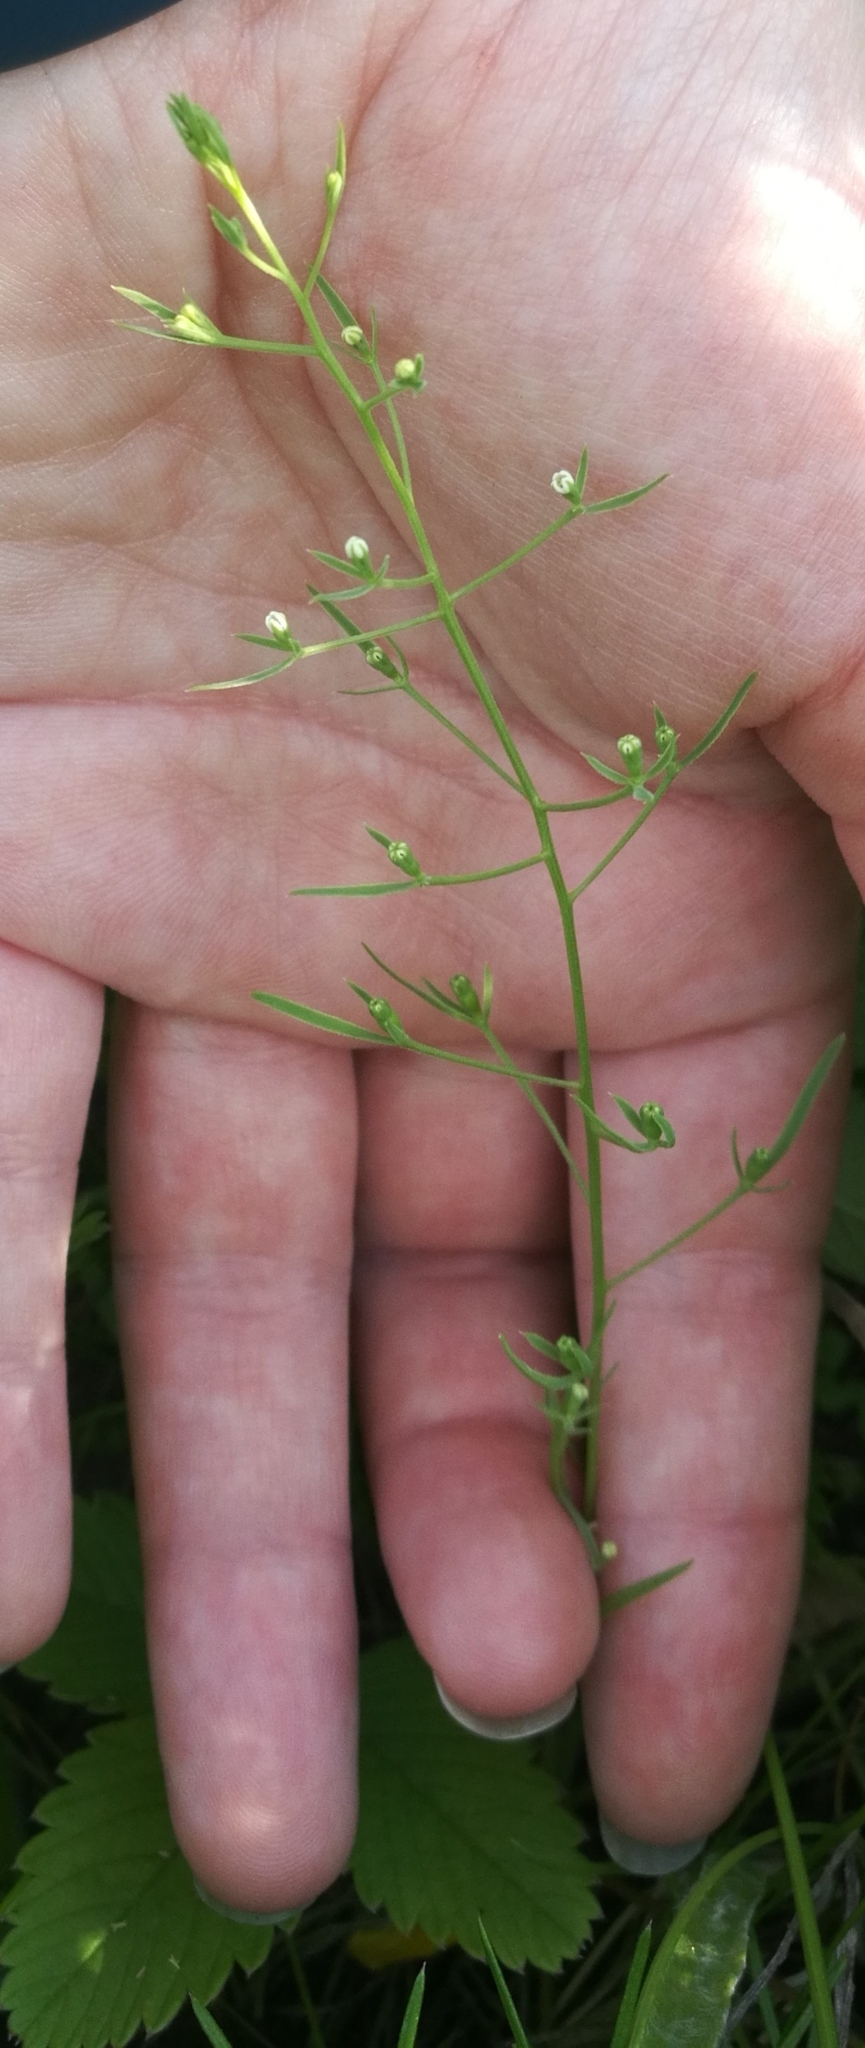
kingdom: Plantae
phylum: Tracheophyta
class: Magnoliopsida
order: Santalales
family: Thesiaceae
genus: Thesium
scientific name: Thesium ramosum
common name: Field thesium
